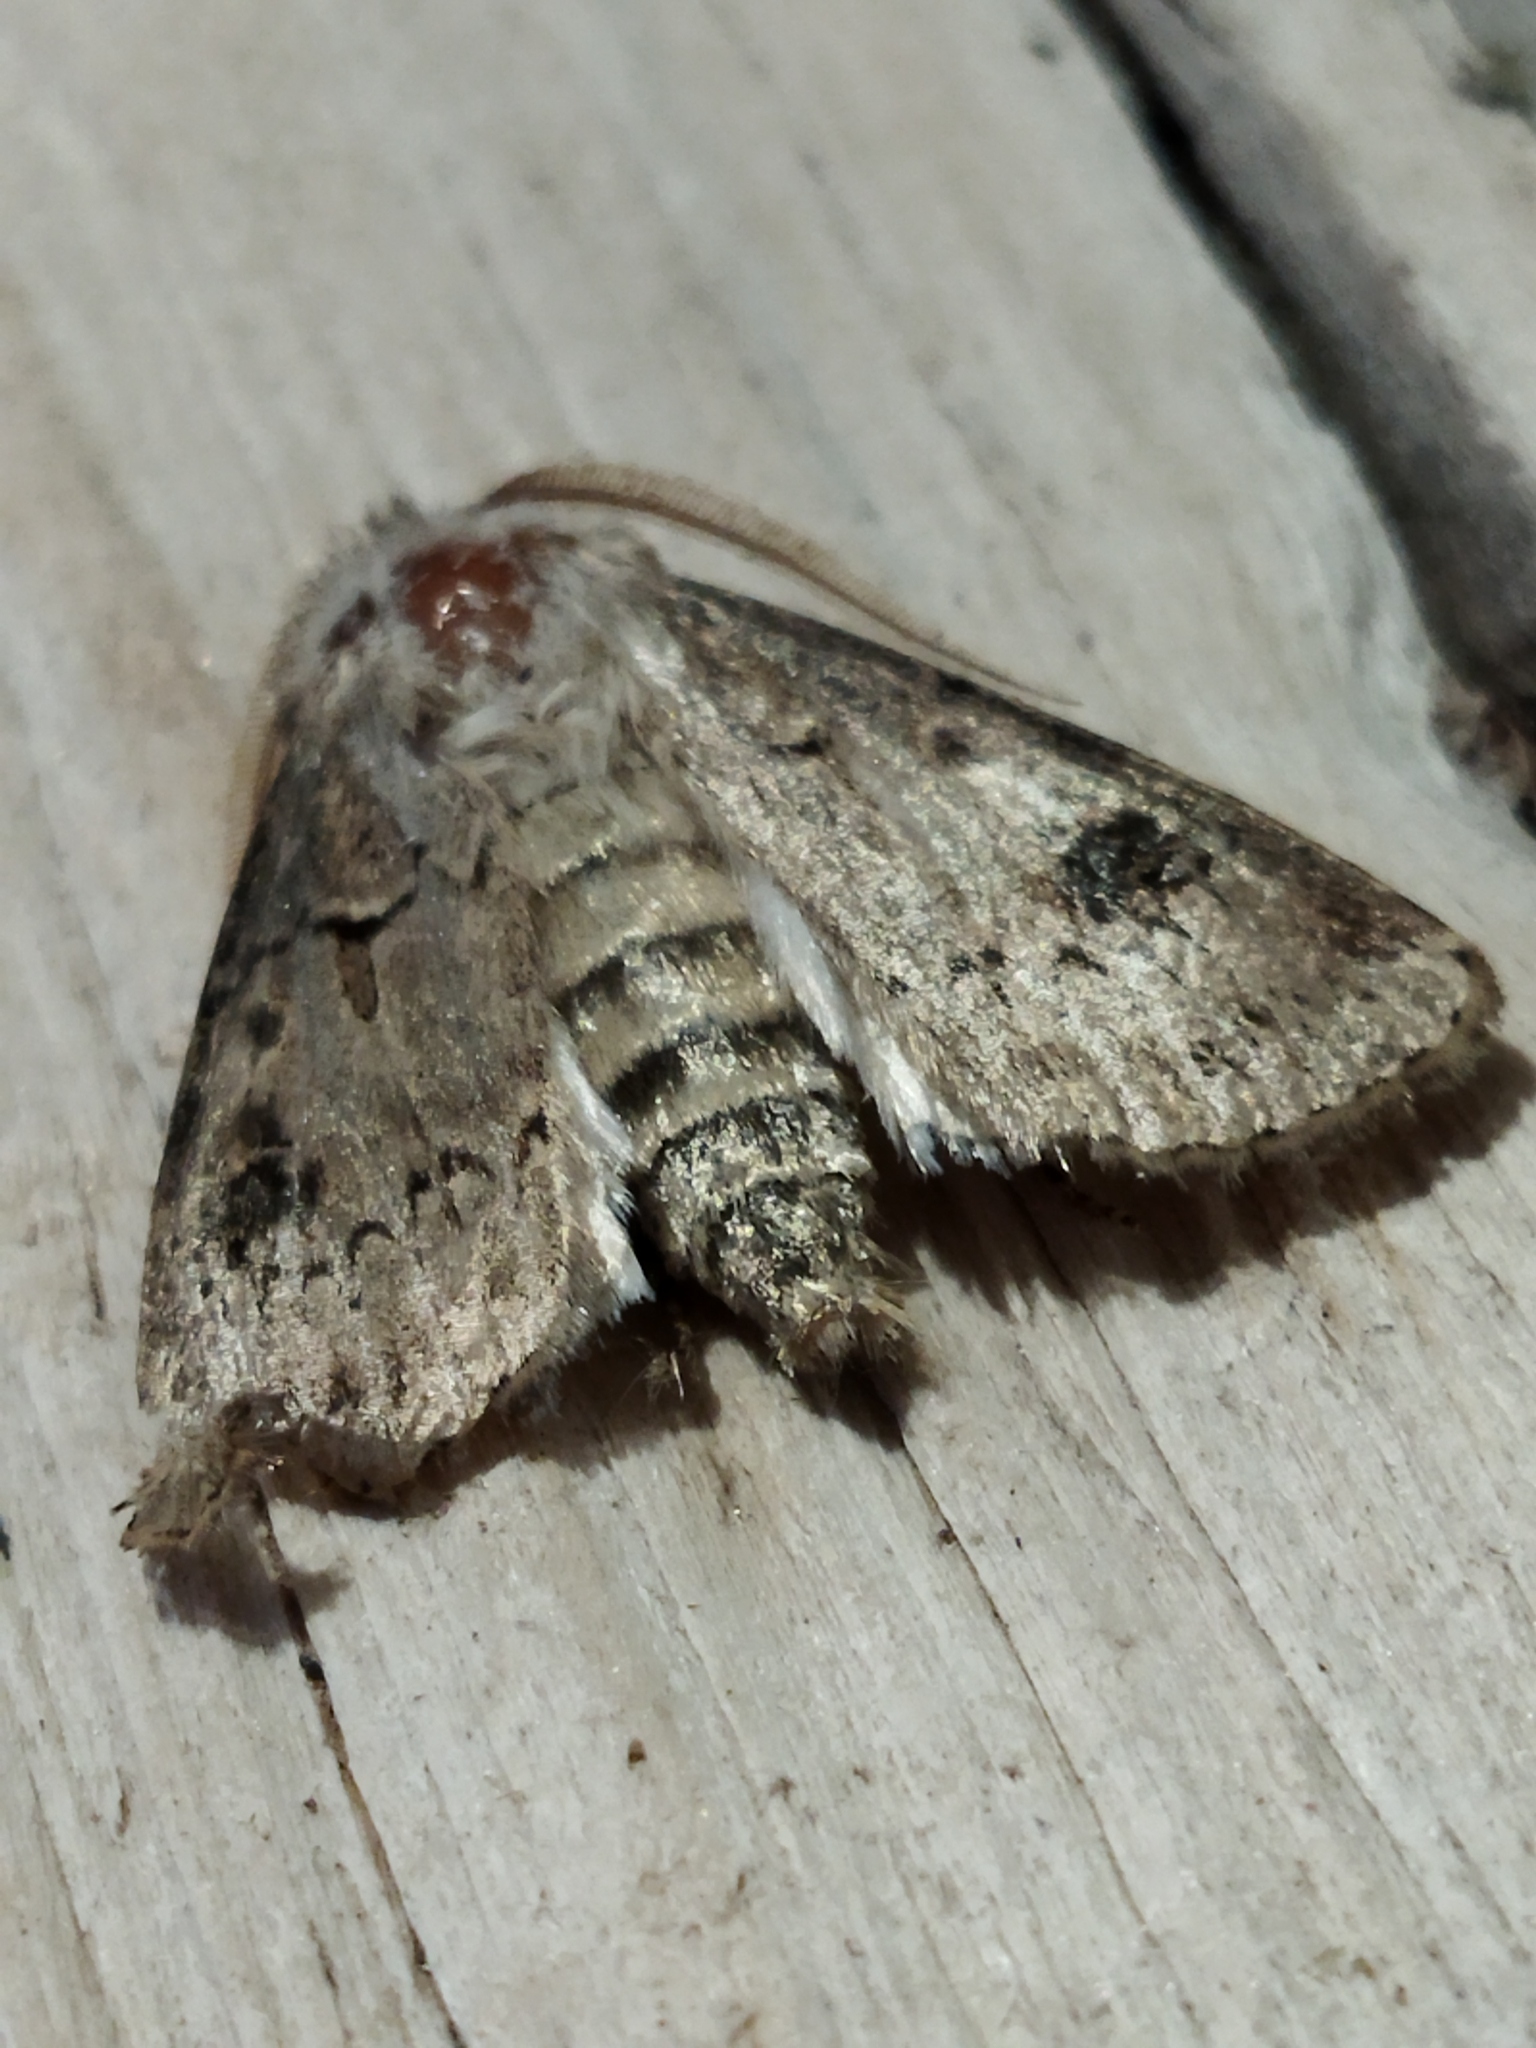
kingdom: Animalia
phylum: Arthropoda
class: Insecta
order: Lepidoptera
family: Noctuidae
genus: Agrotis
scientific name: Agrotis bigramma
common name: Great dart
